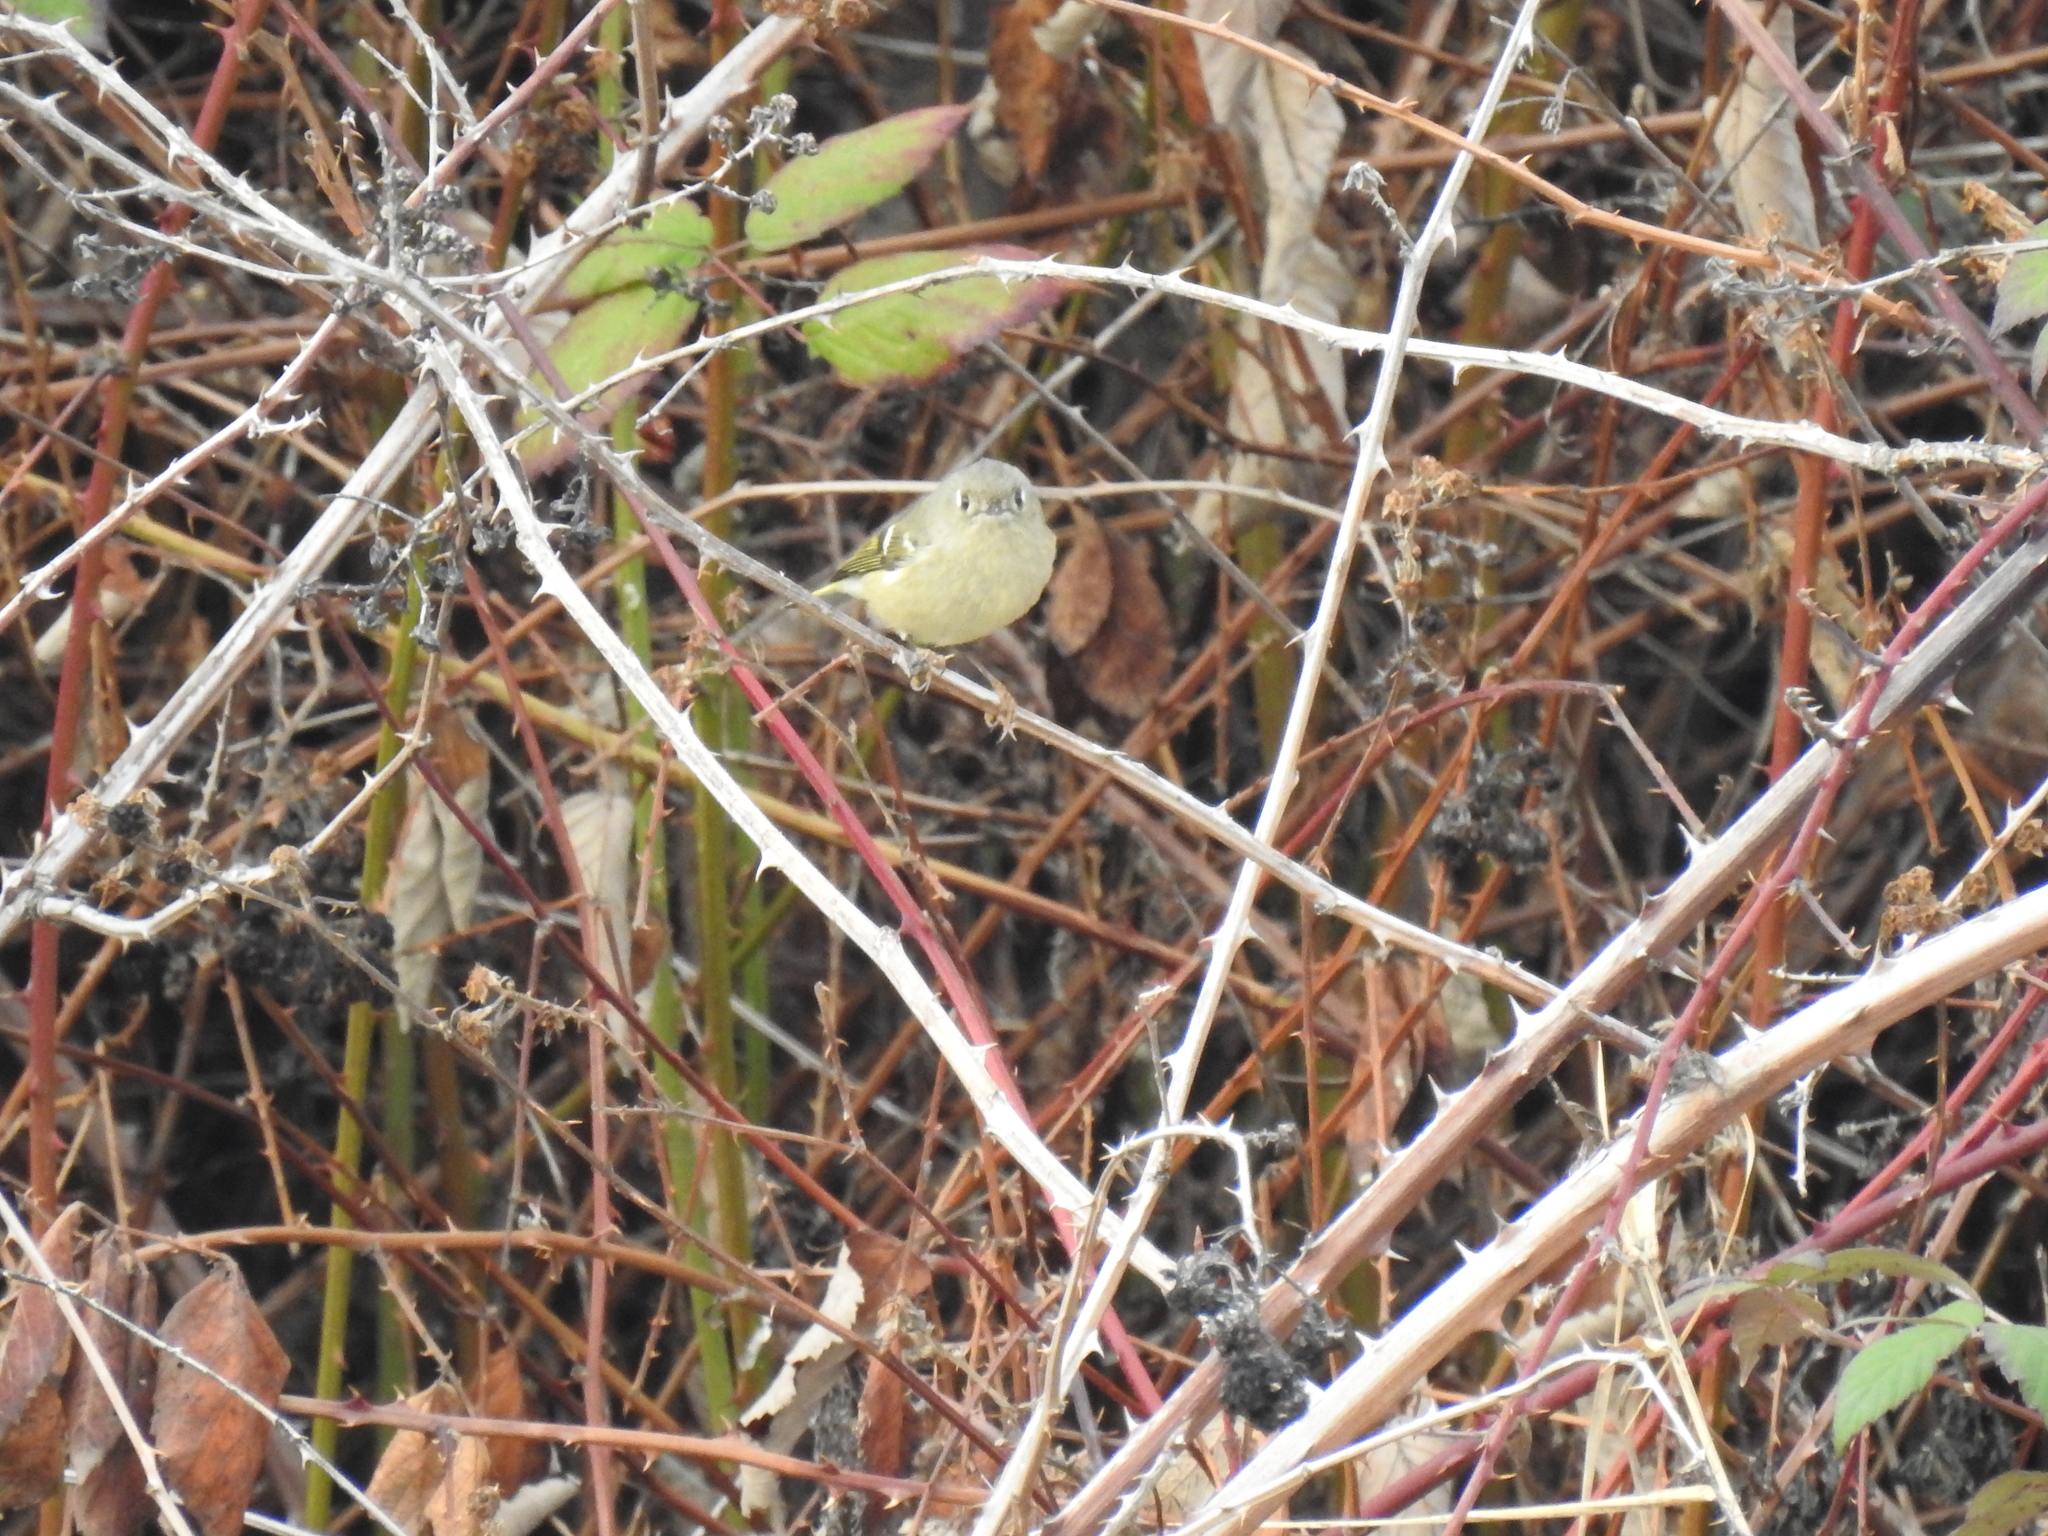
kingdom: Animalia
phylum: Chordata
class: Aves
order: Passeriformes
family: Regulidae
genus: Regulus
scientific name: Regulus calendula
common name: Ruby-crowned kinglet
